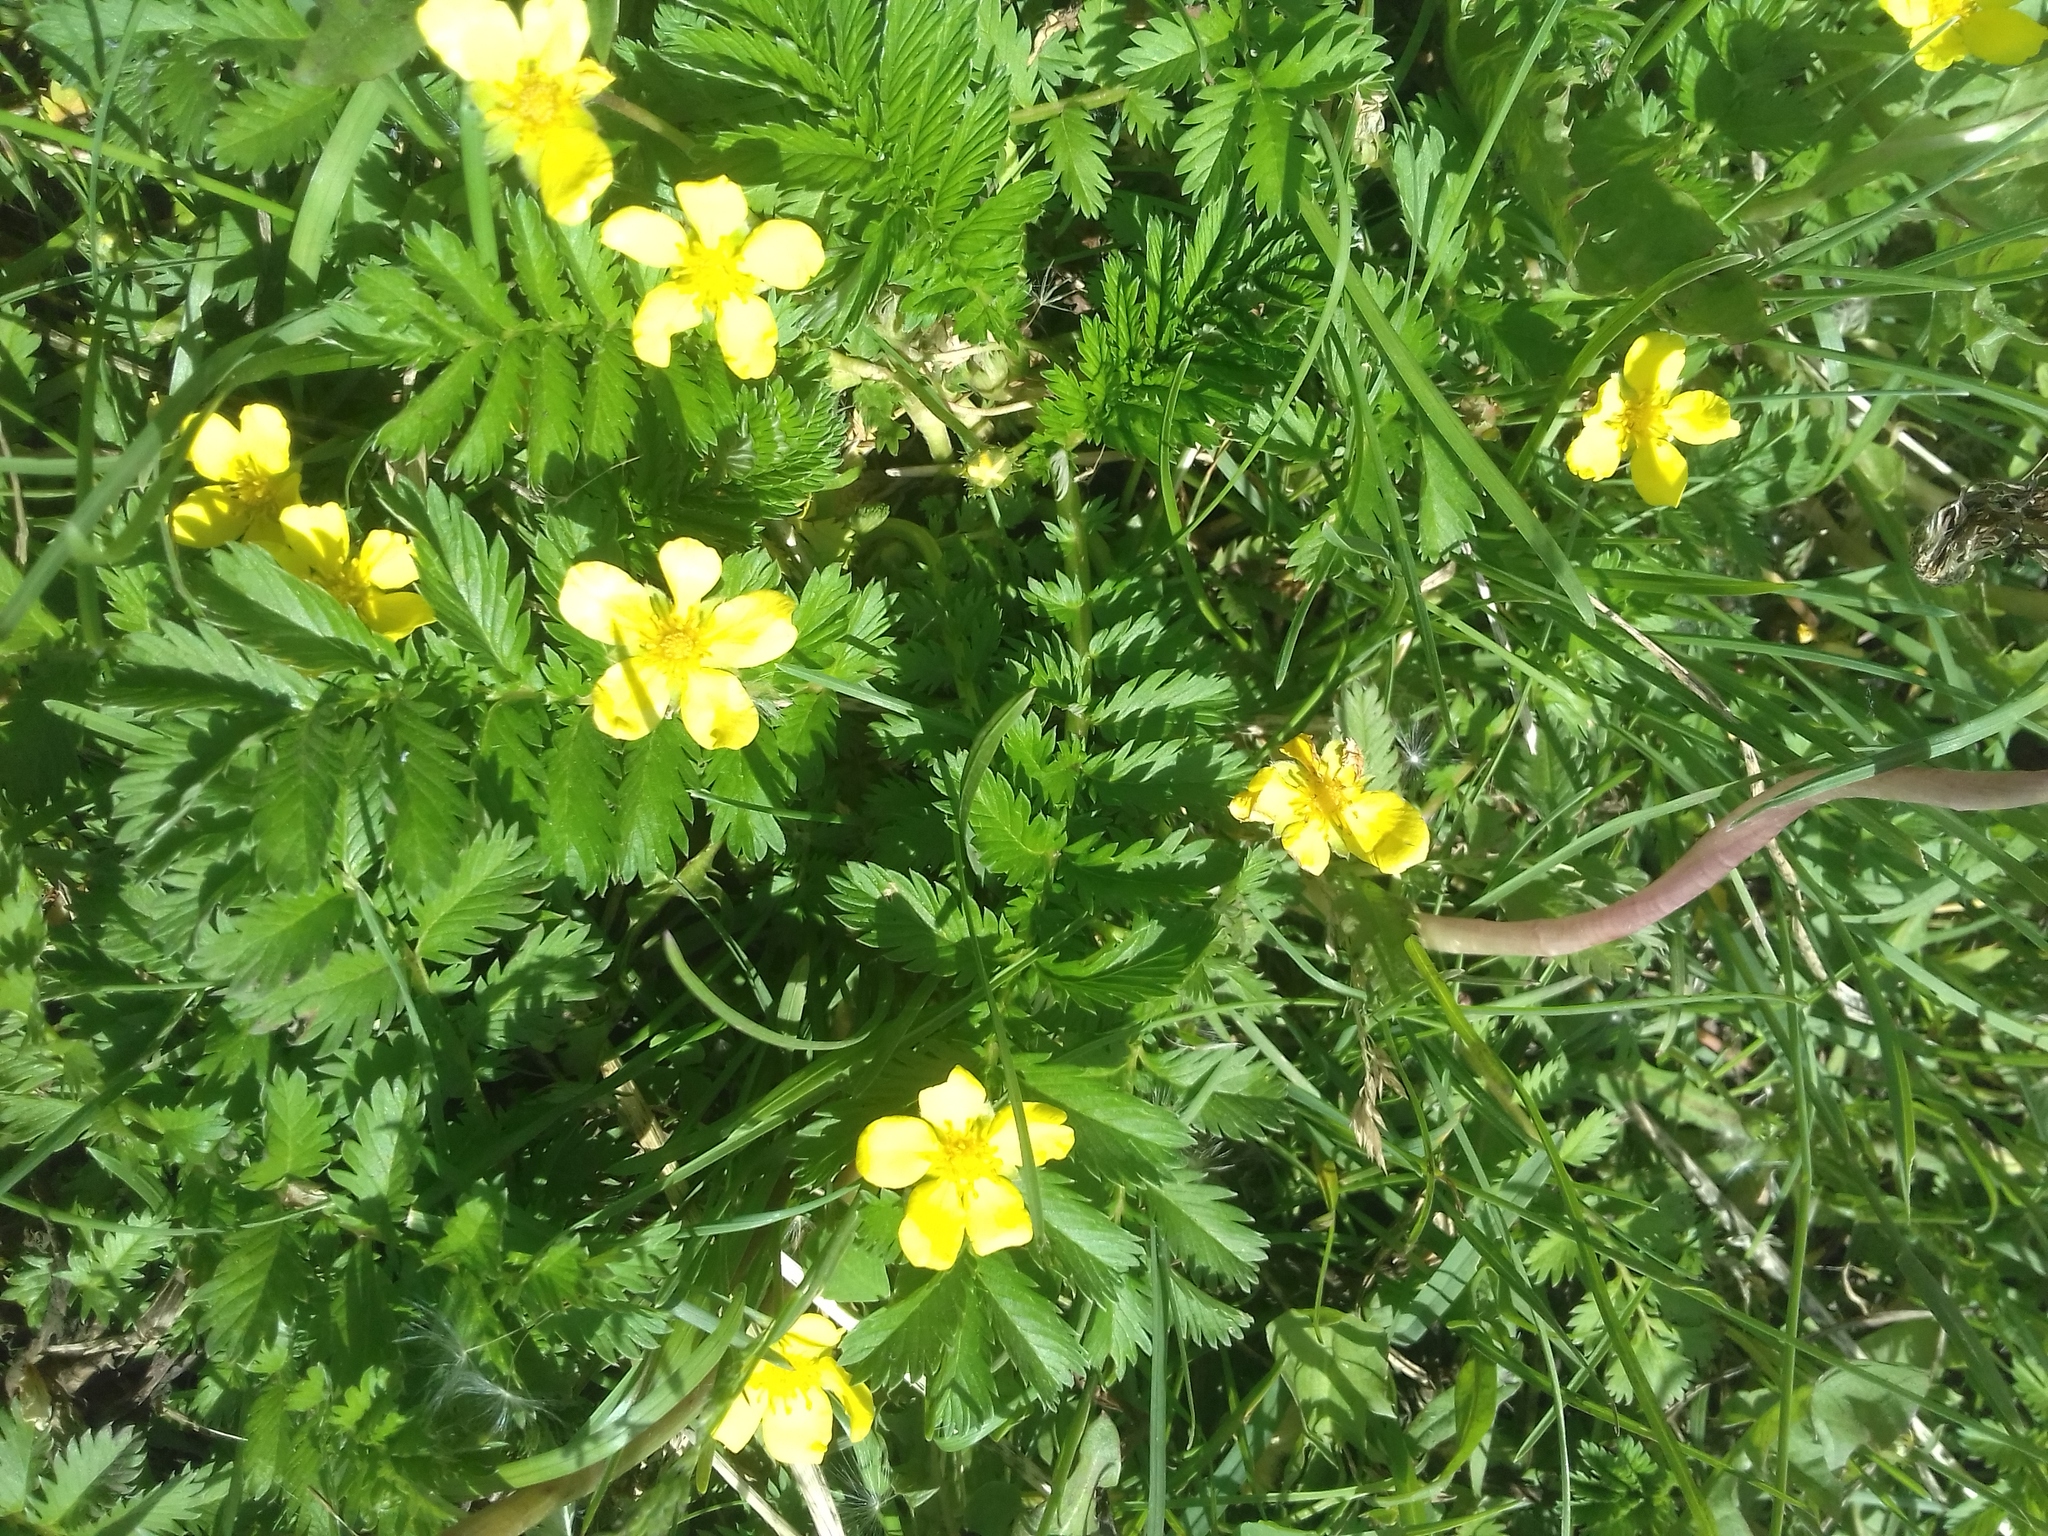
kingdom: Plantae
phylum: Tracheophyta
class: Magnoliopsida
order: Rosales
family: Rosaceae
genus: Argentina
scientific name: Argentina anserina
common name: Common silverweed
